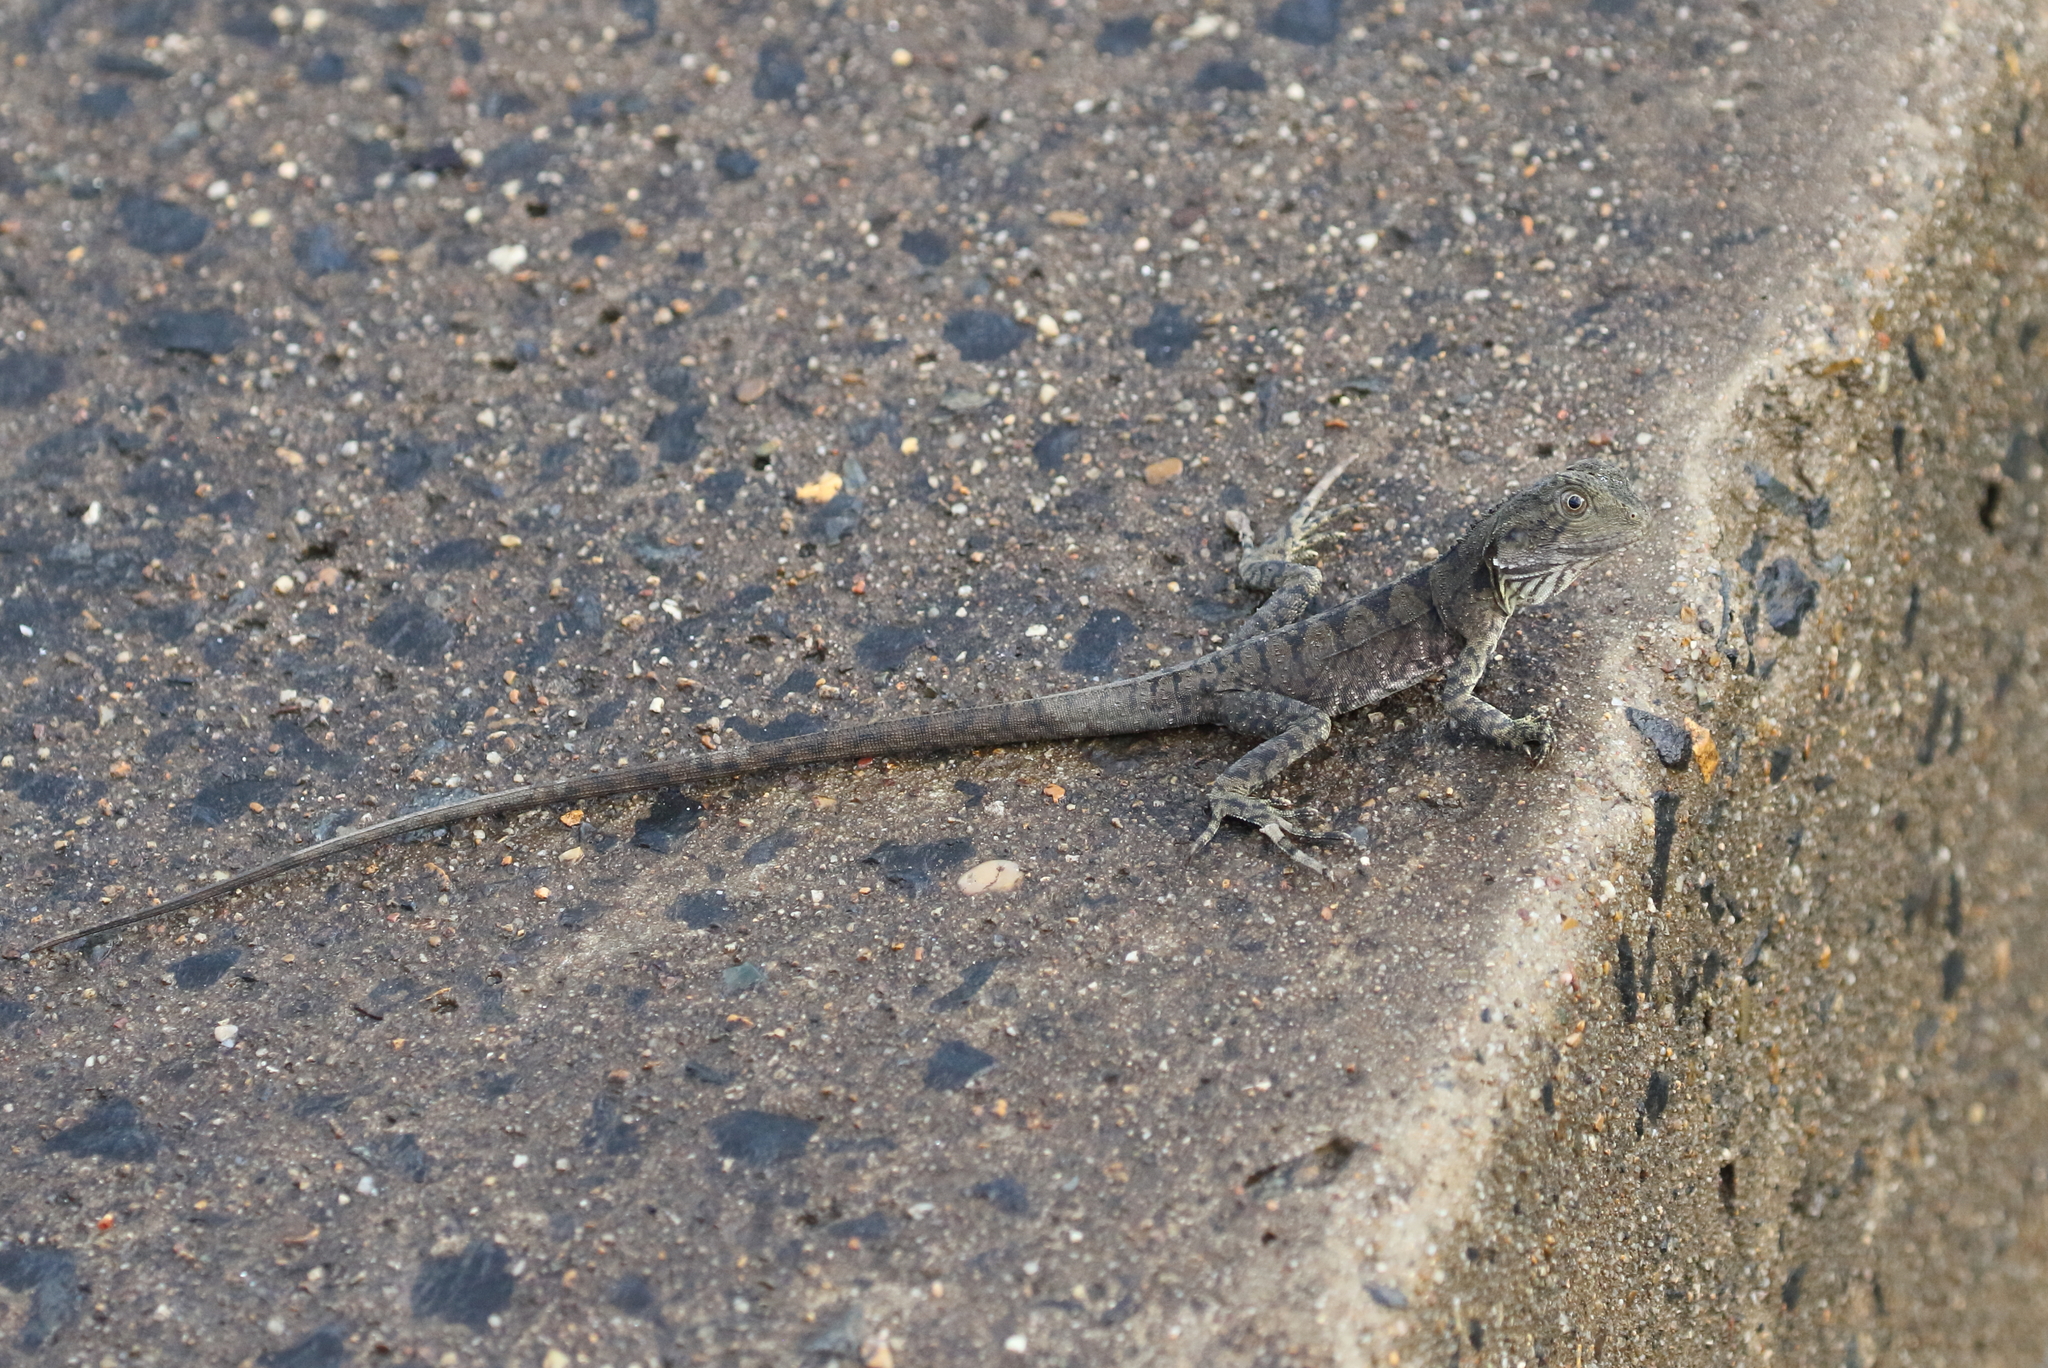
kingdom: Animalia
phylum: Chordata
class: Squamata
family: Agamidae
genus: Intellagama
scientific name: Intellagama lesueurii
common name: Eastern water dragon
